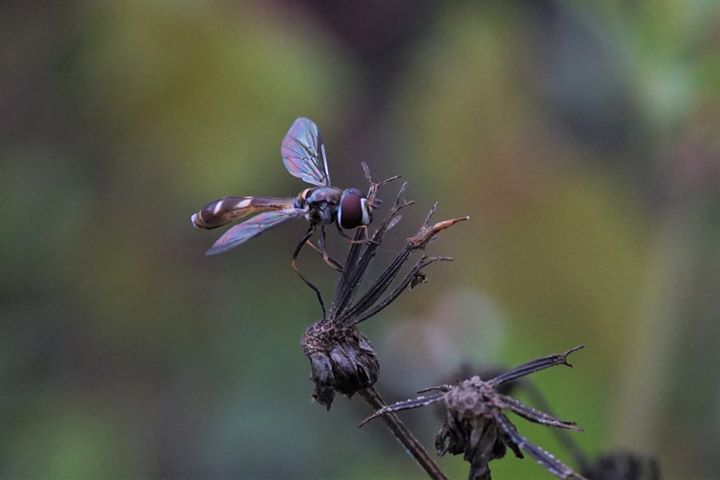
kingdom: Animalia
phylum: Arthropoda
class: Insecta
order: Diptera
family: Syrphidae
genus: Dioprosopa
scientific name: Dioprosopa clavatus
